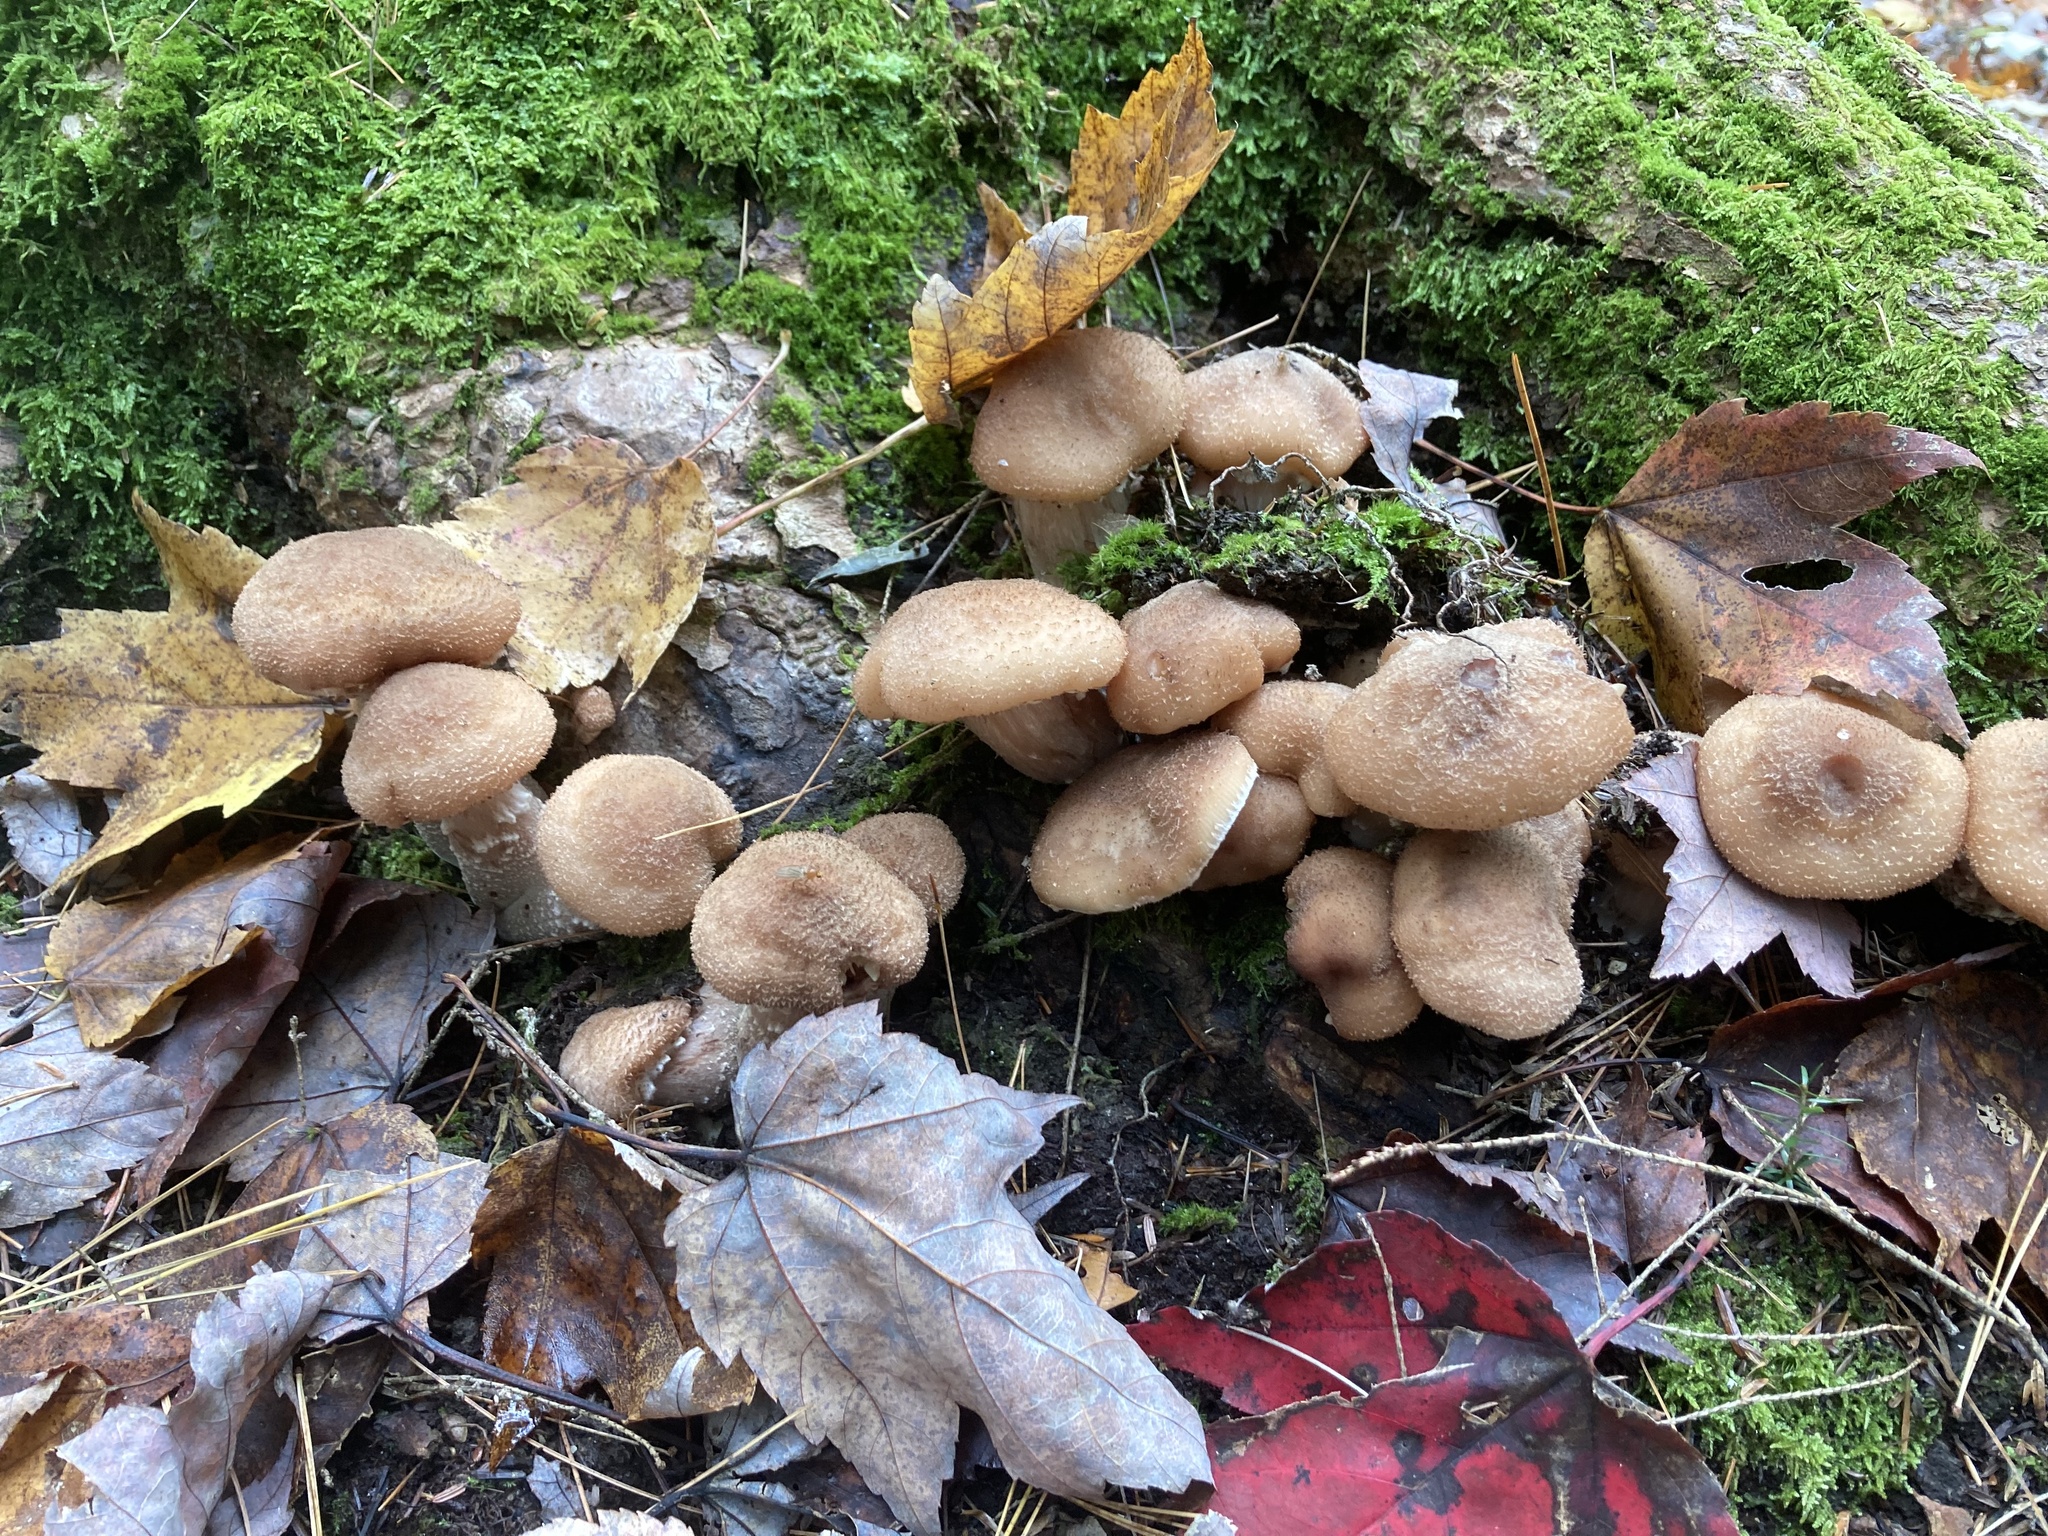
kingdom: Fungi
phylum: Basidiomycota
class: Agaricomycetes
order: Agaricales
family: Physalacriaceae
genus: Armillaria
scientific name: Armillaria gallica
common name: Bulbous honey fungus
